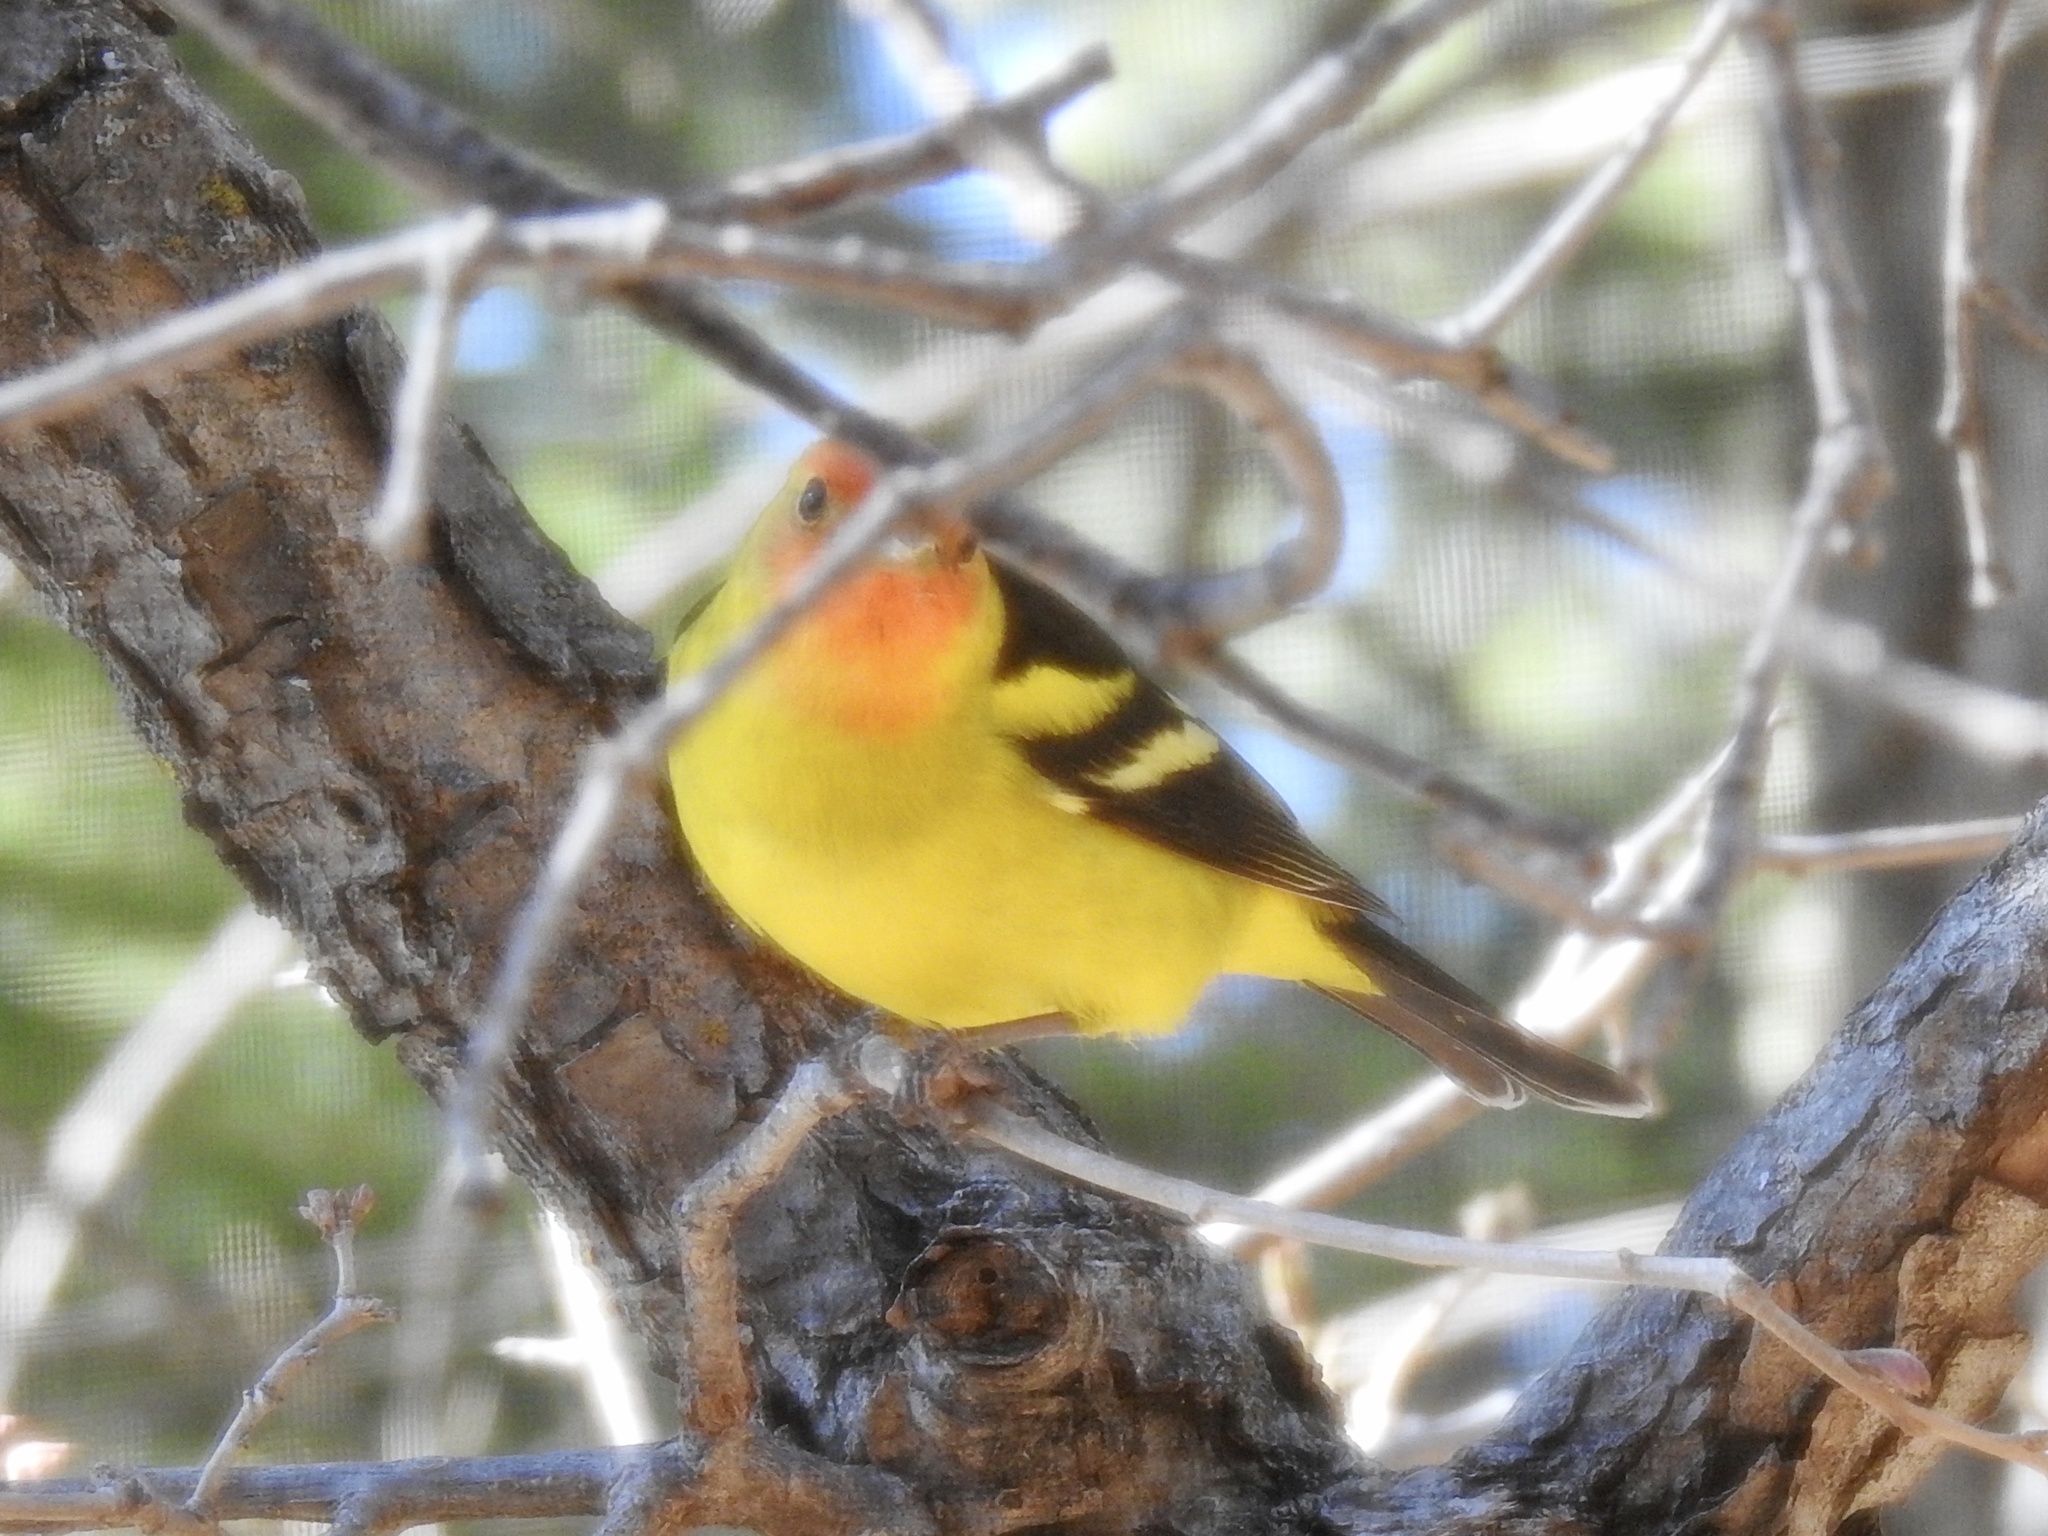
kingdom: Animalia
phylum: Chordata
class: Aves
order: Passeriformes
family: Cardinalidae
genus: Piranga
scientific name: Piranga ludoviciana
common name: Western tanager
